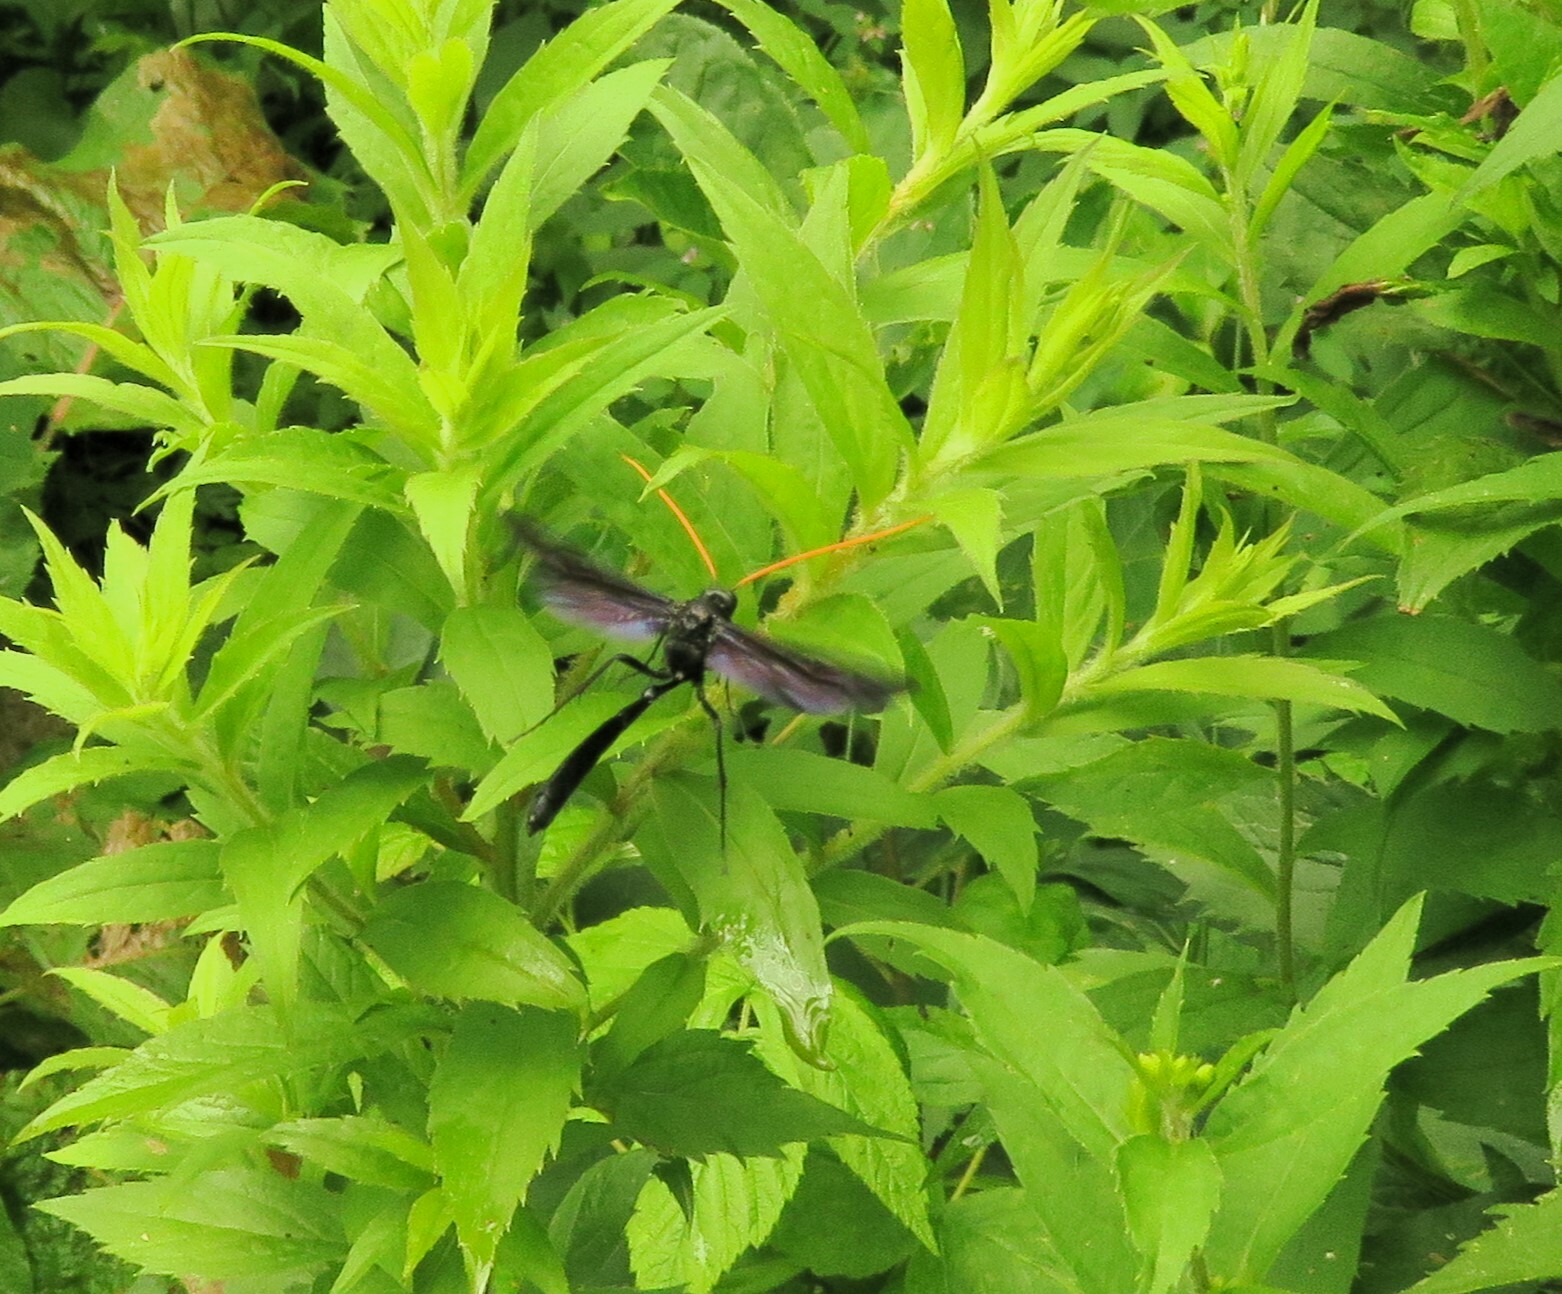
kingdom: Animalia
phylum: Arthropoda
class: Insecta
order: Hymenoptera
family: Ichneumonidae
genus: Thyreodon
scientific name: Thyreodon atricolor
